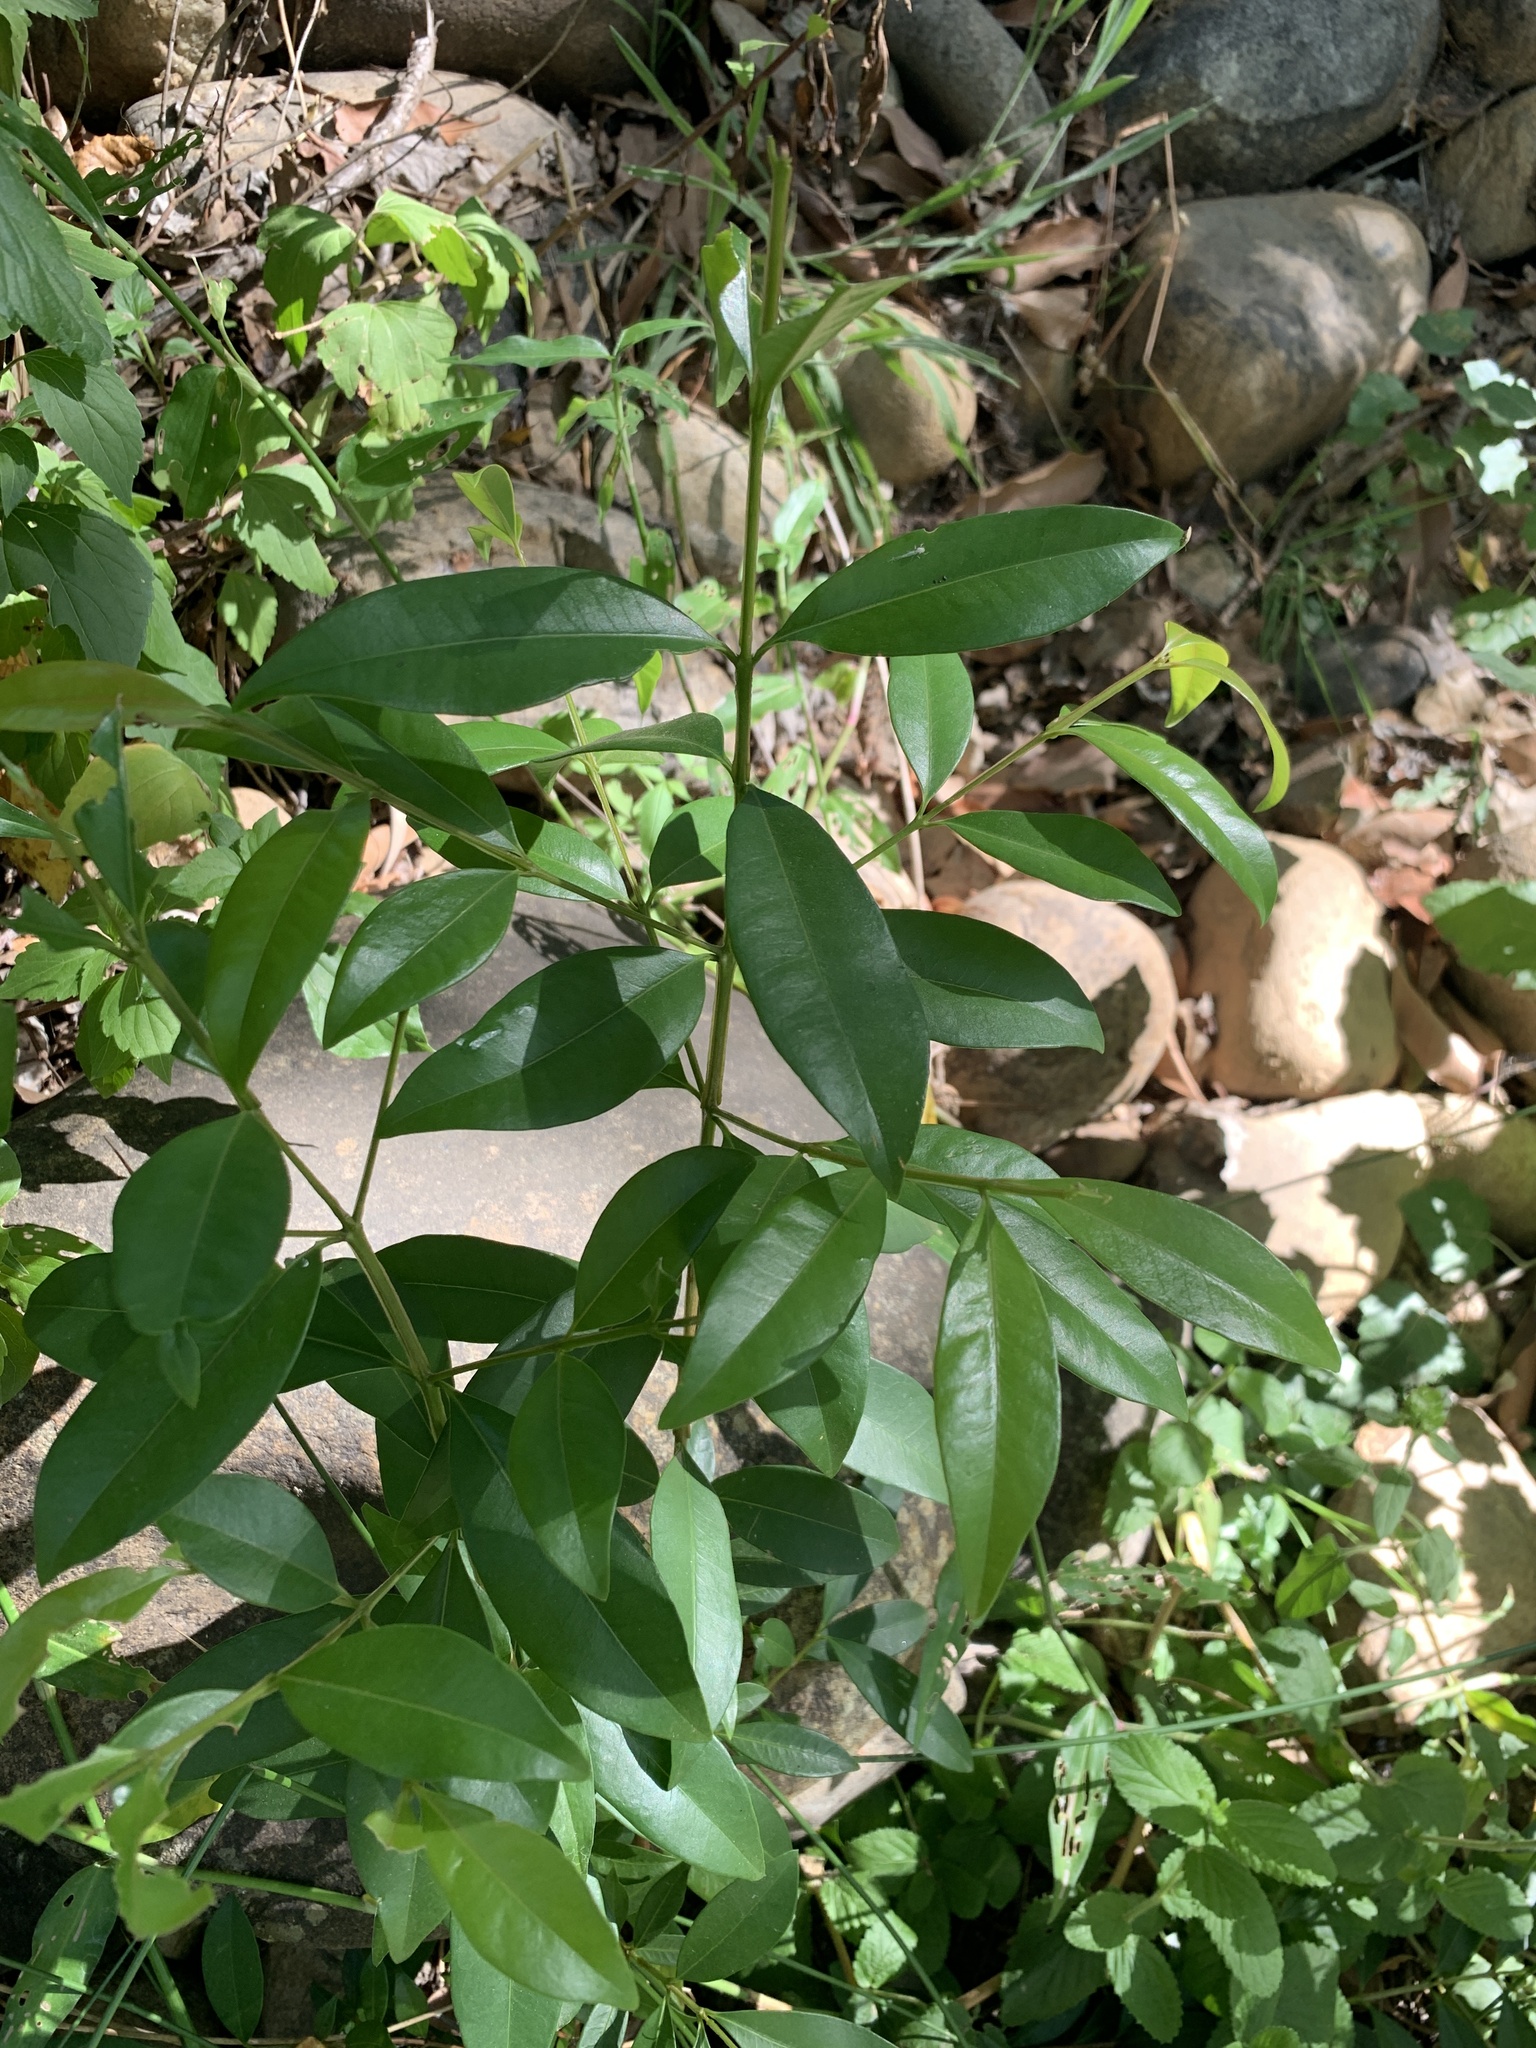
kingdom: Plantae
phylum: Tracheophyta
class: Magnoliopsida
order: Myrtales
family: Myrtaceae
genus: Syzygium
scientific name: Syzygium australe
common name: Australian brush-cherry
